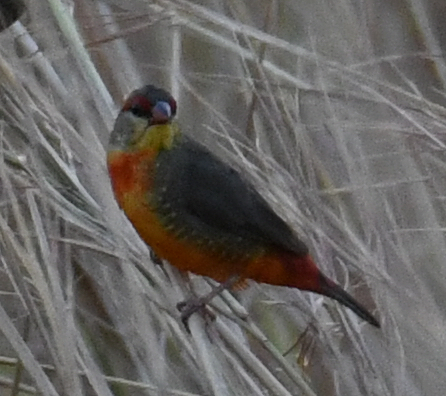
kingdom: Animalia
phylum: Chordata
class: Aves
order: Passeriformes
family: Estrildidae
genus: Amandava
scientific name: Amandava subflava
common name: Orange-breasted waxbill
